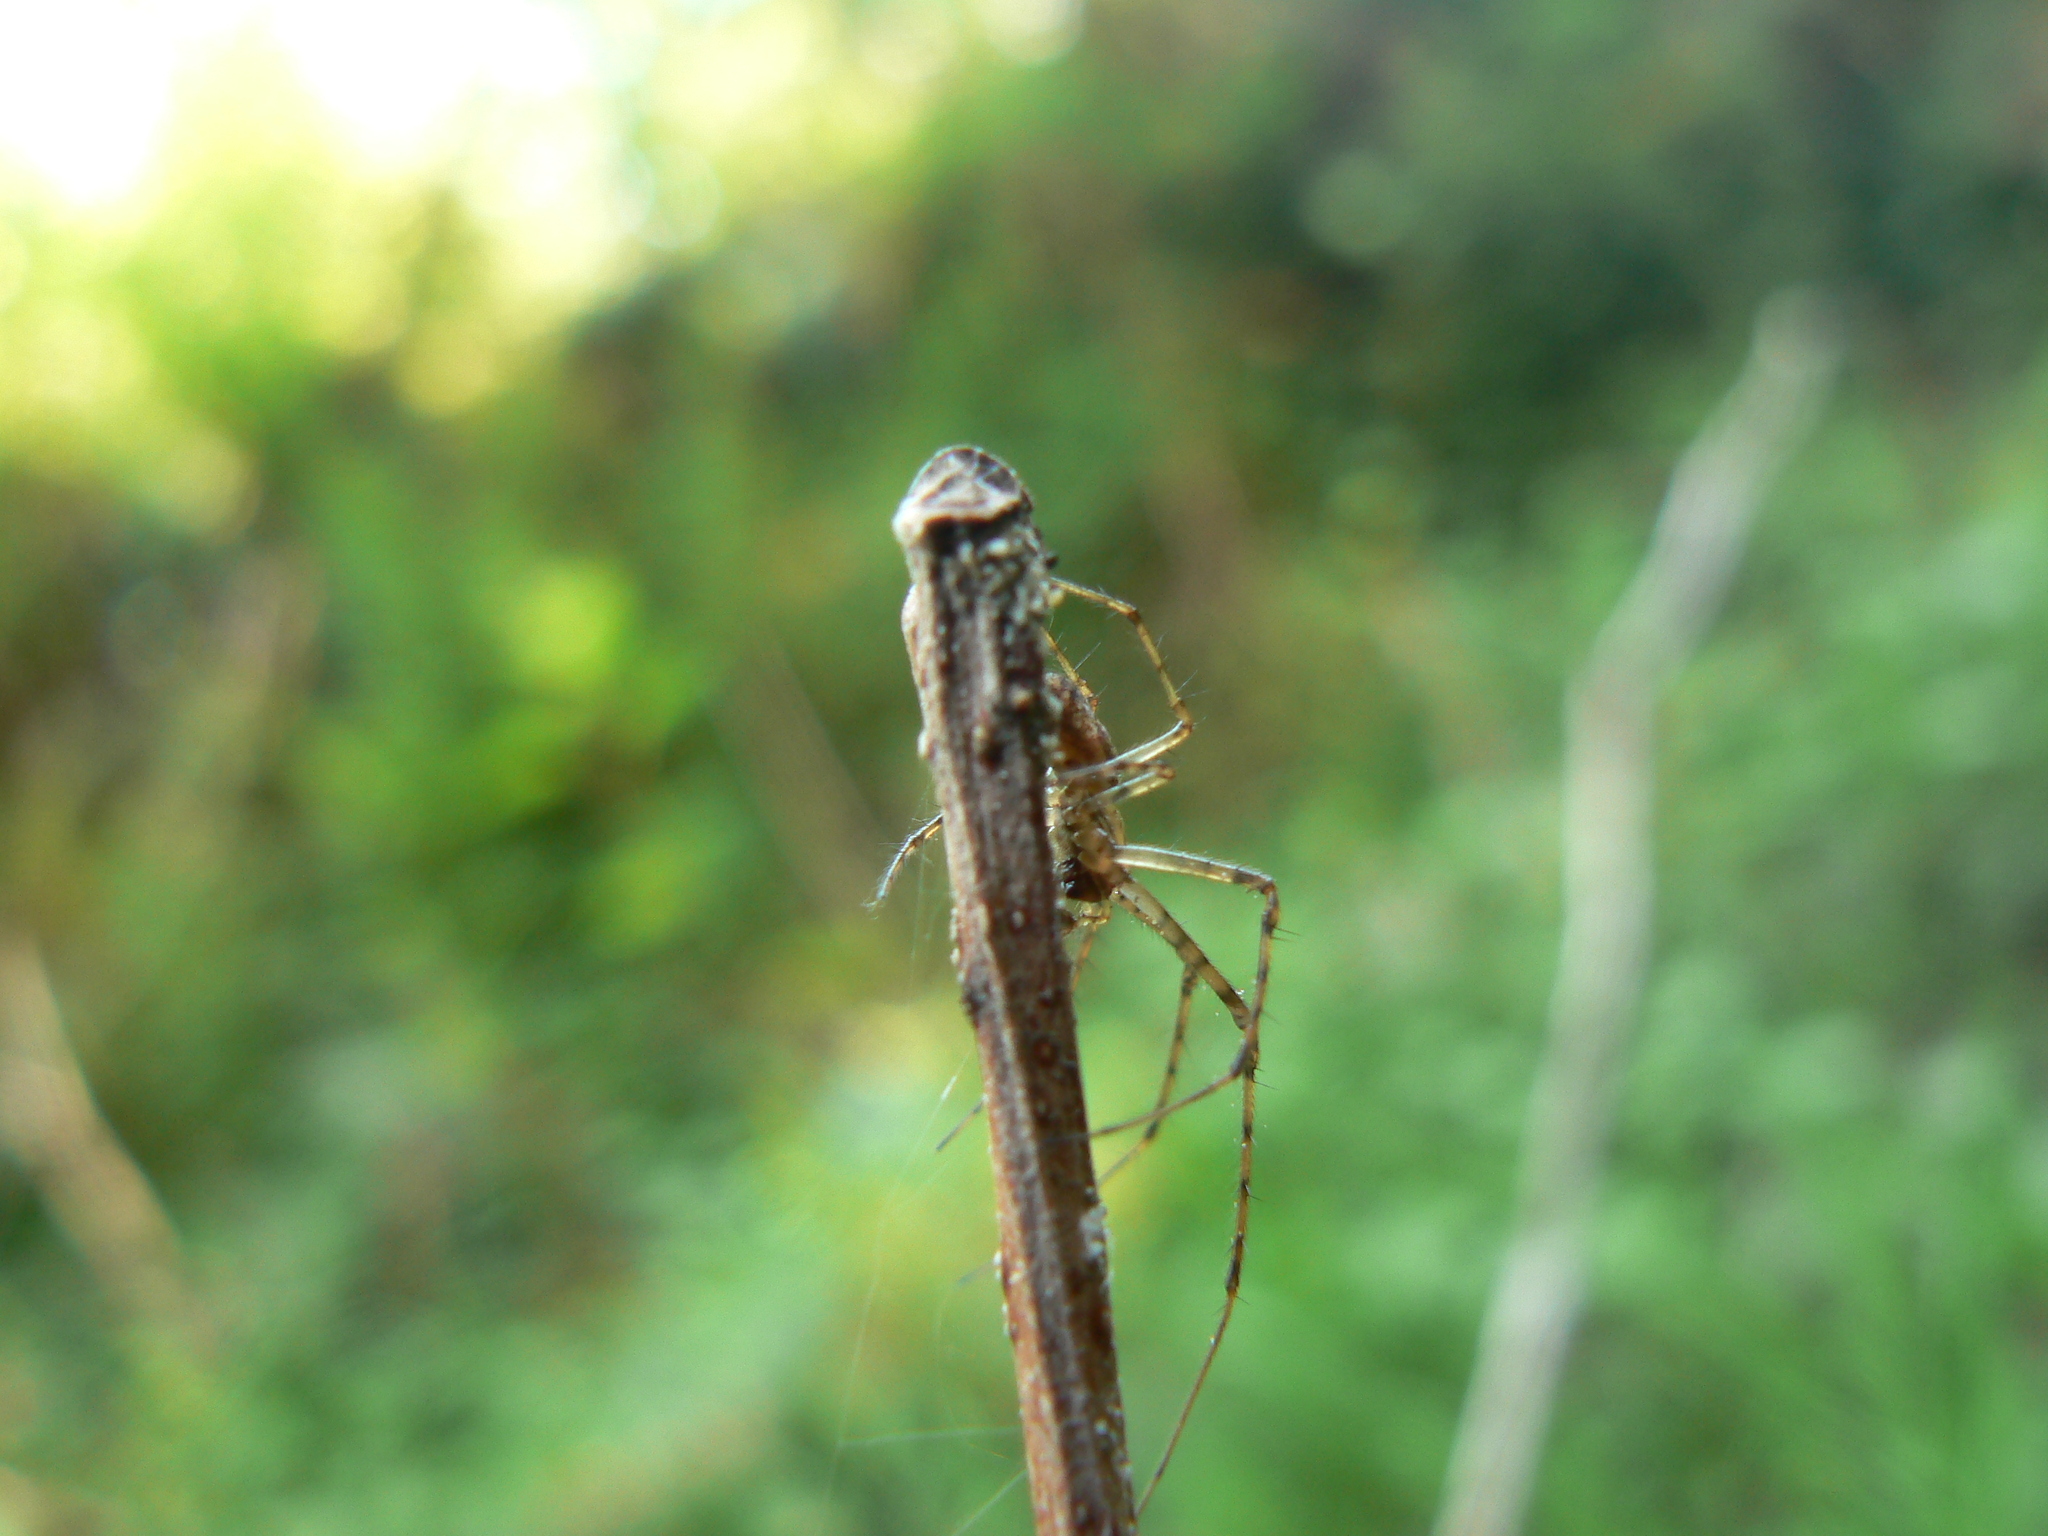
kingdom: Animalia
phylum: Arthropoda
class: Arachnida
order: Araneae
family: Tetragnathidae
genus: Metellina
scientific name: Metellina curtisi
